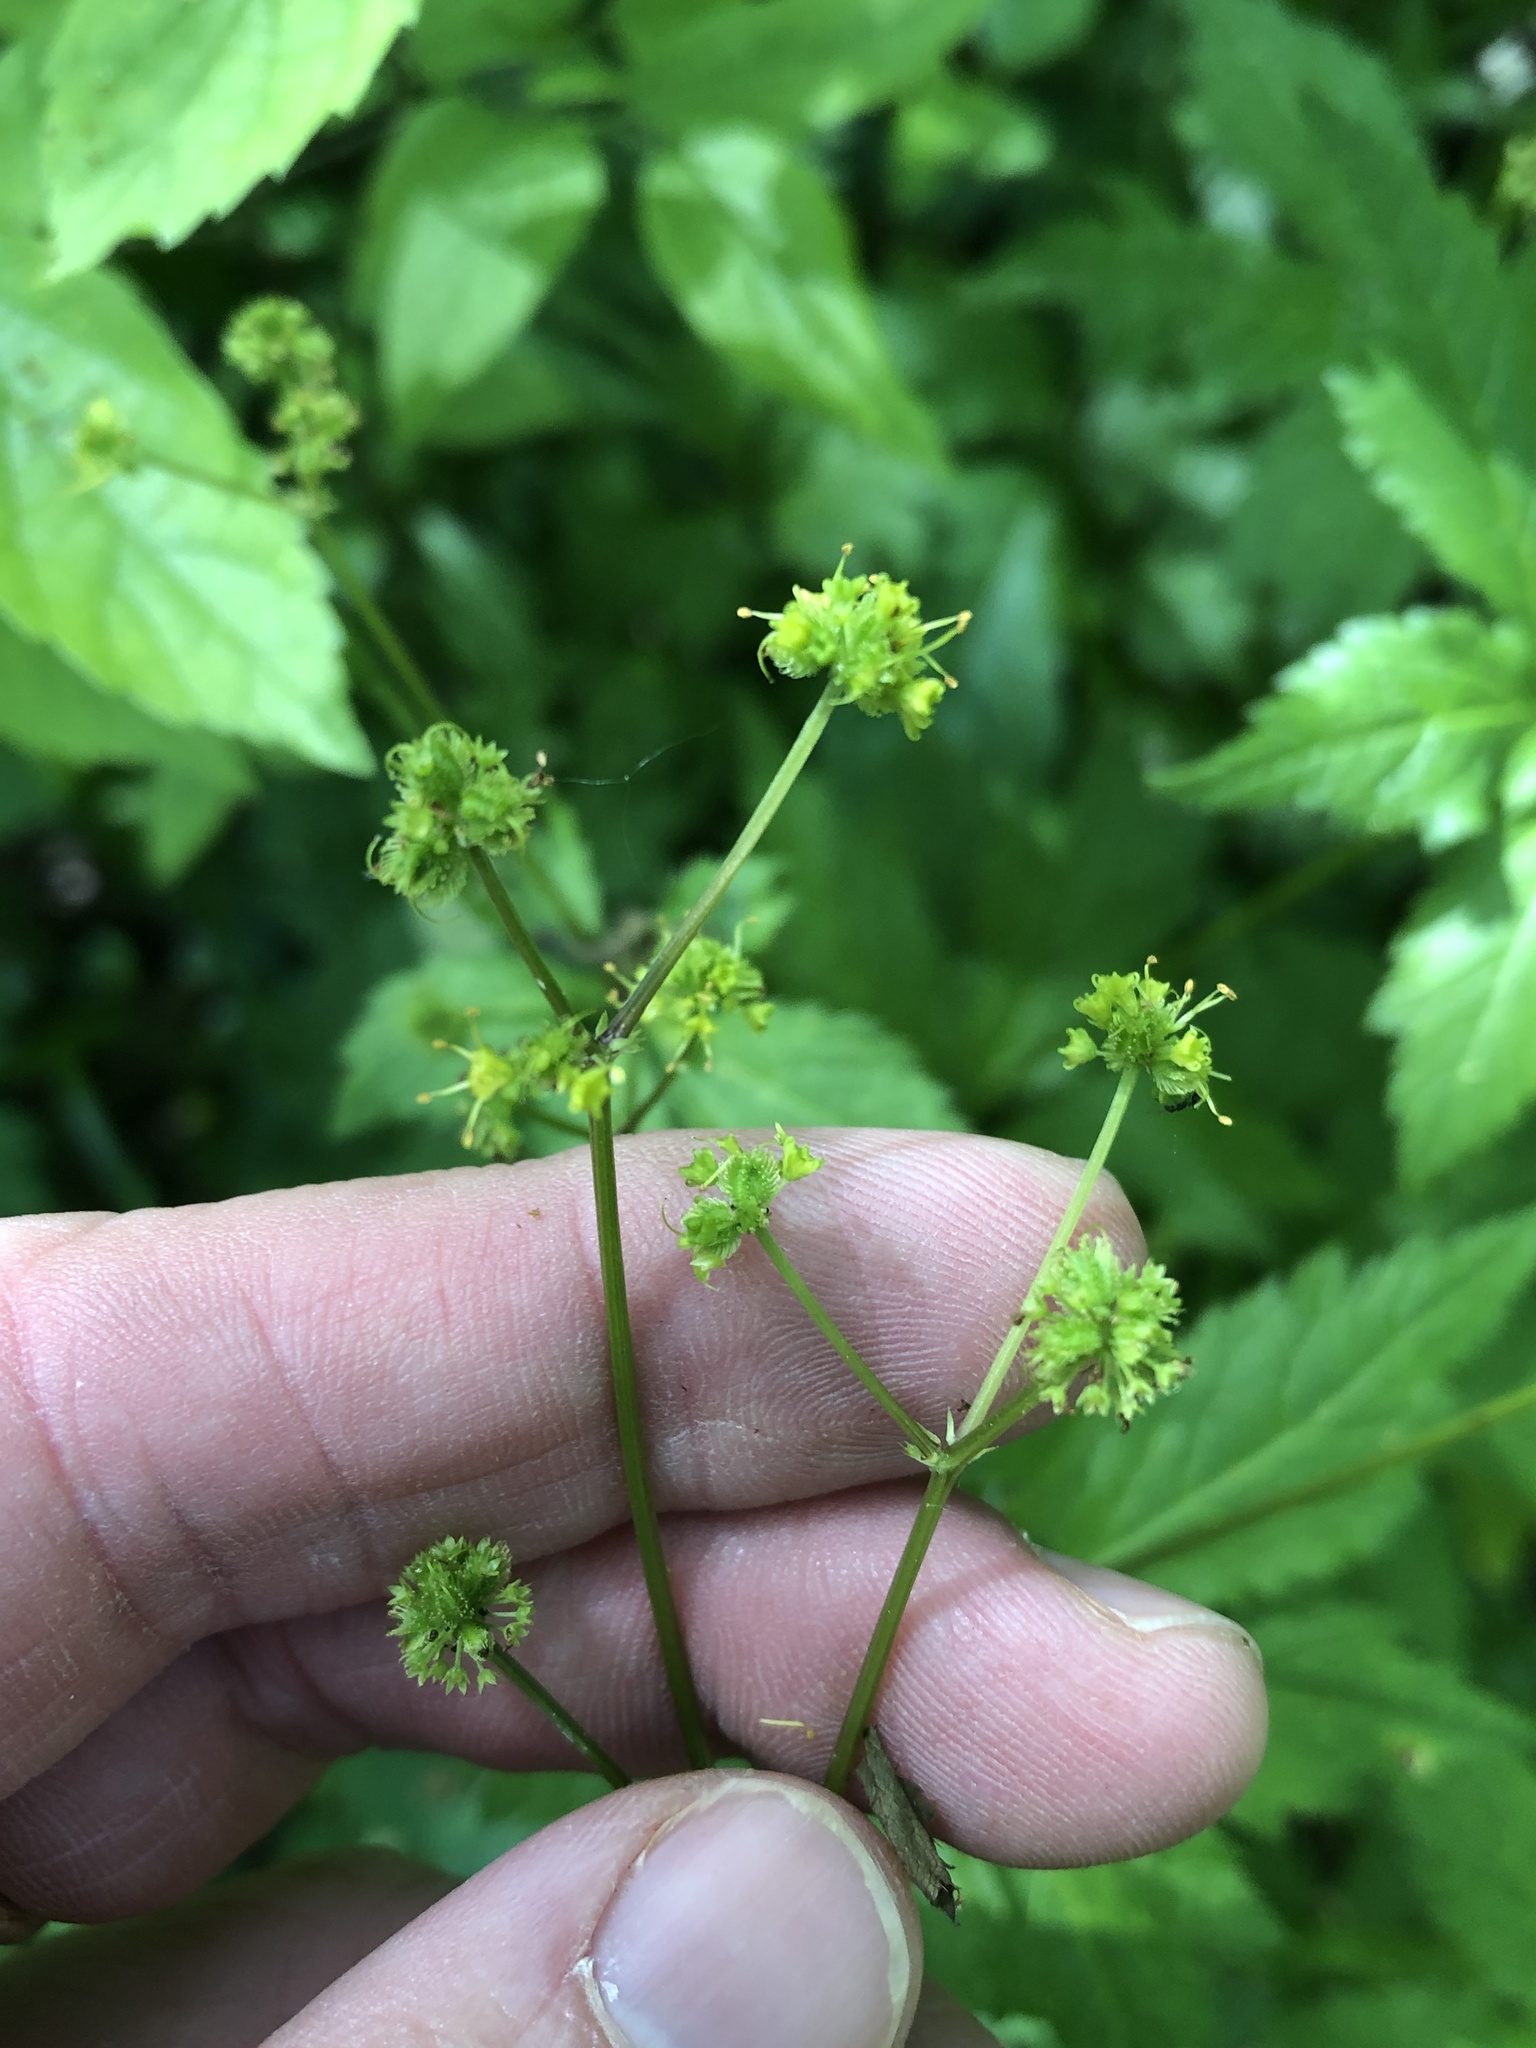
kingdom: Plantae
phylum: Tracheophyta
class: Magnoliopsida
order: Apiales
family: Apiaceae
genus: Sanicula
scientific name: Sanicula odorata
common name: Cluster sanicle
